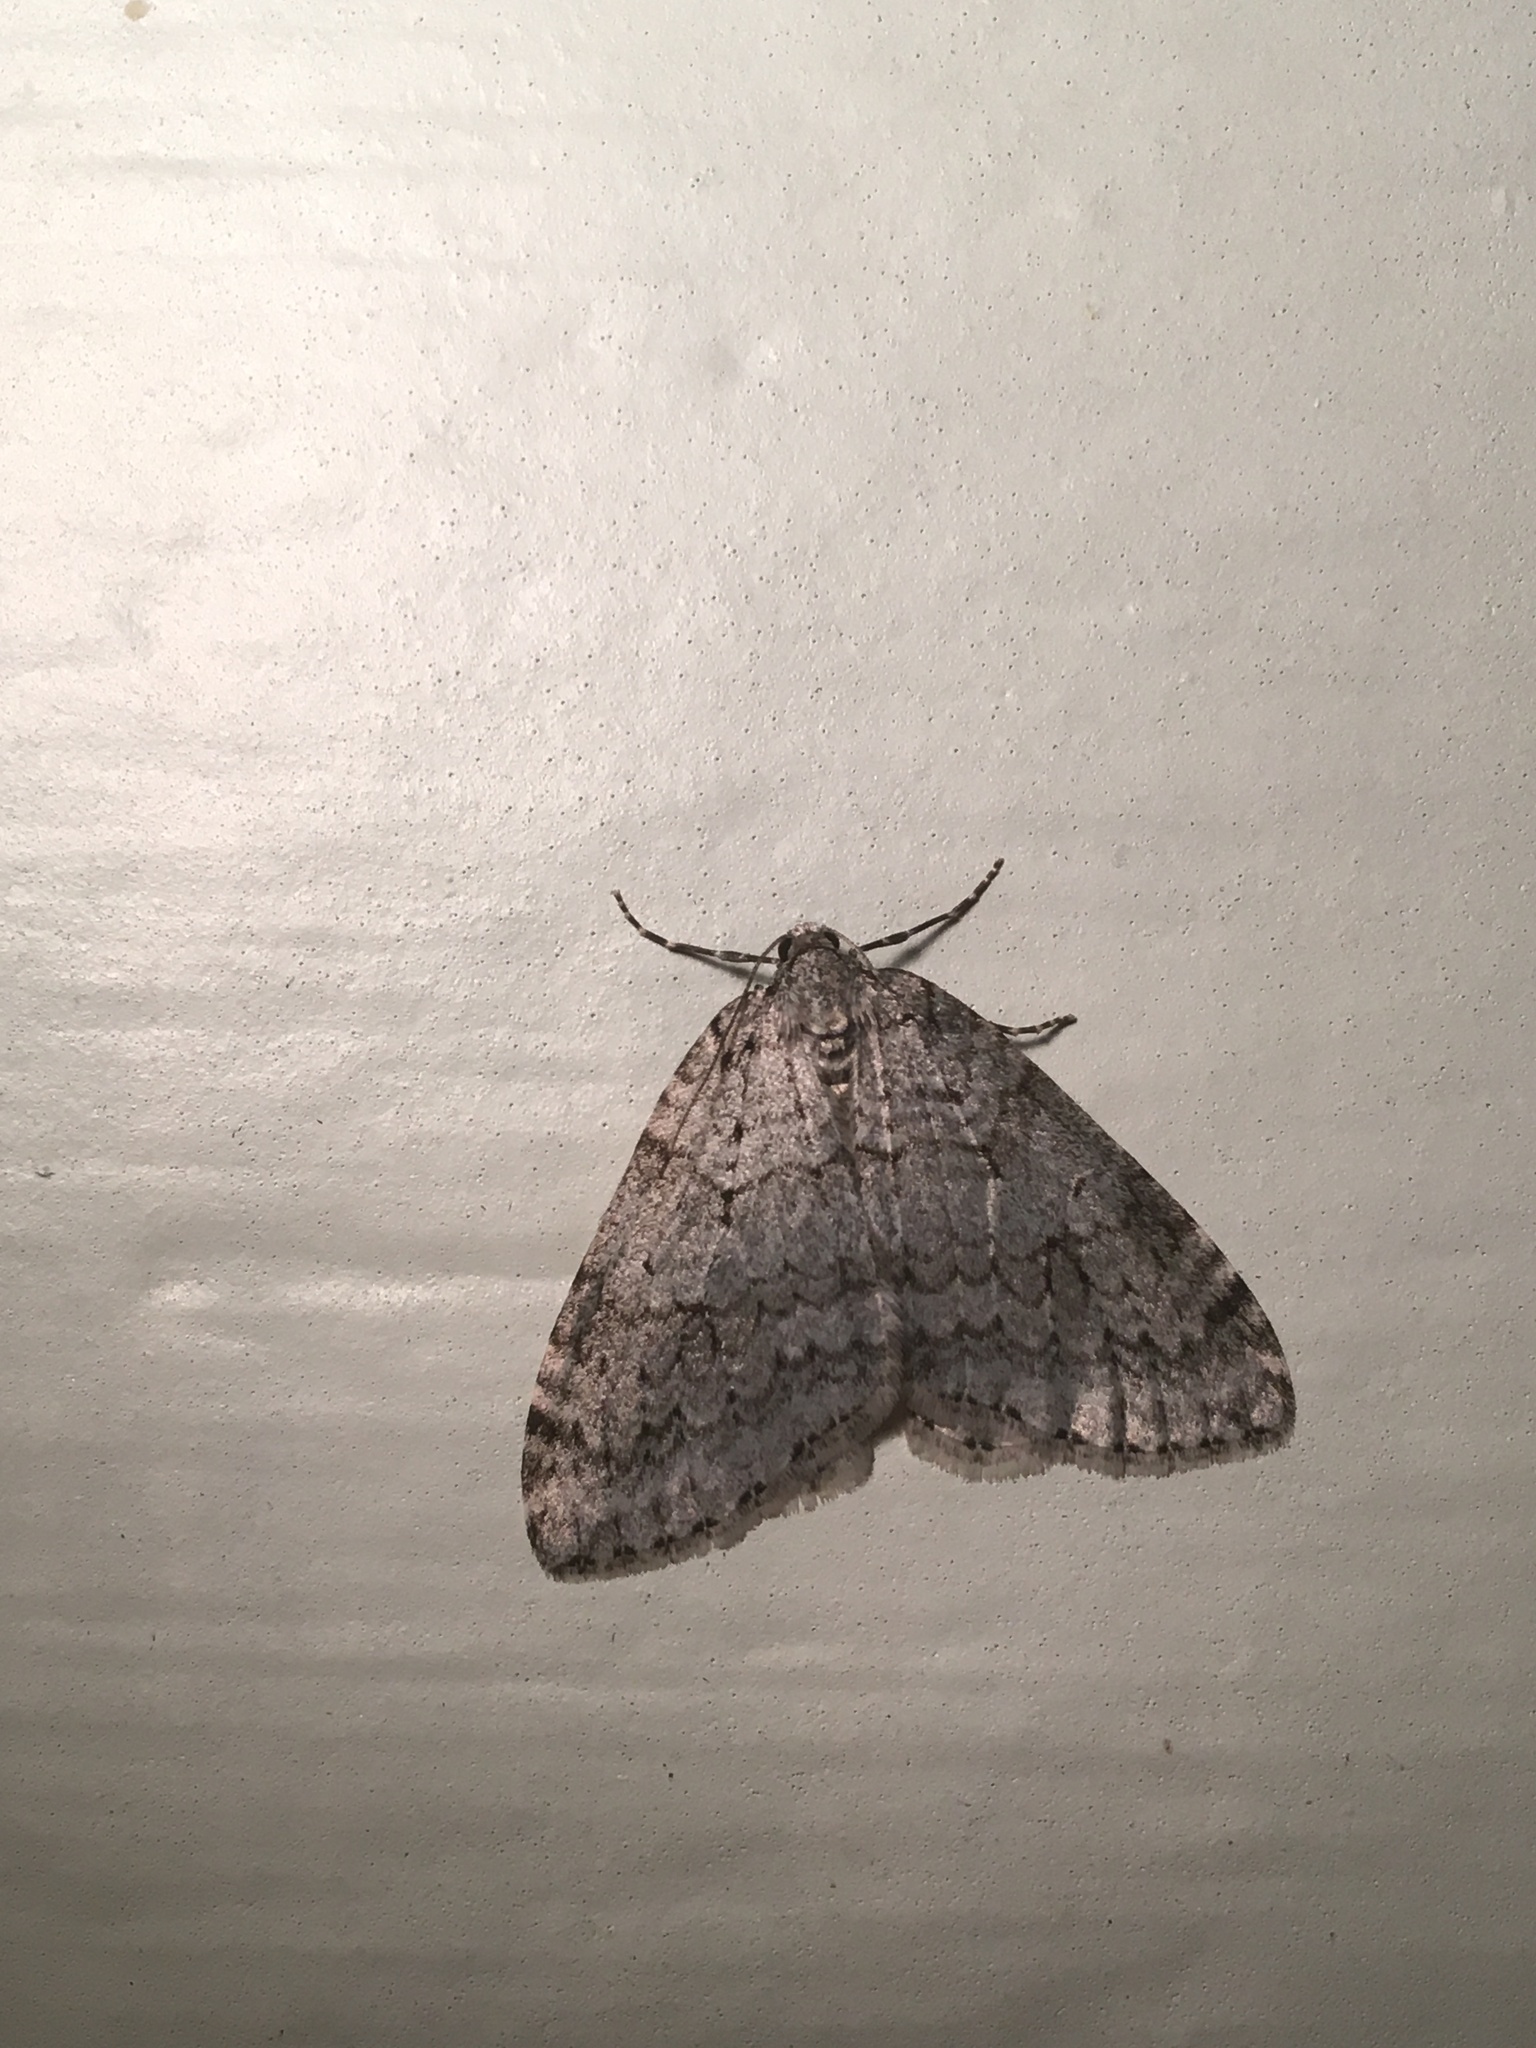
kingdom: Animalia
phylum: Arthropoda
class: Insecta
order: Lepidoptera
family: Geometridae
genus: Epirrita
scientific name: Epirrita autumnata
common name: Autumnal moth
